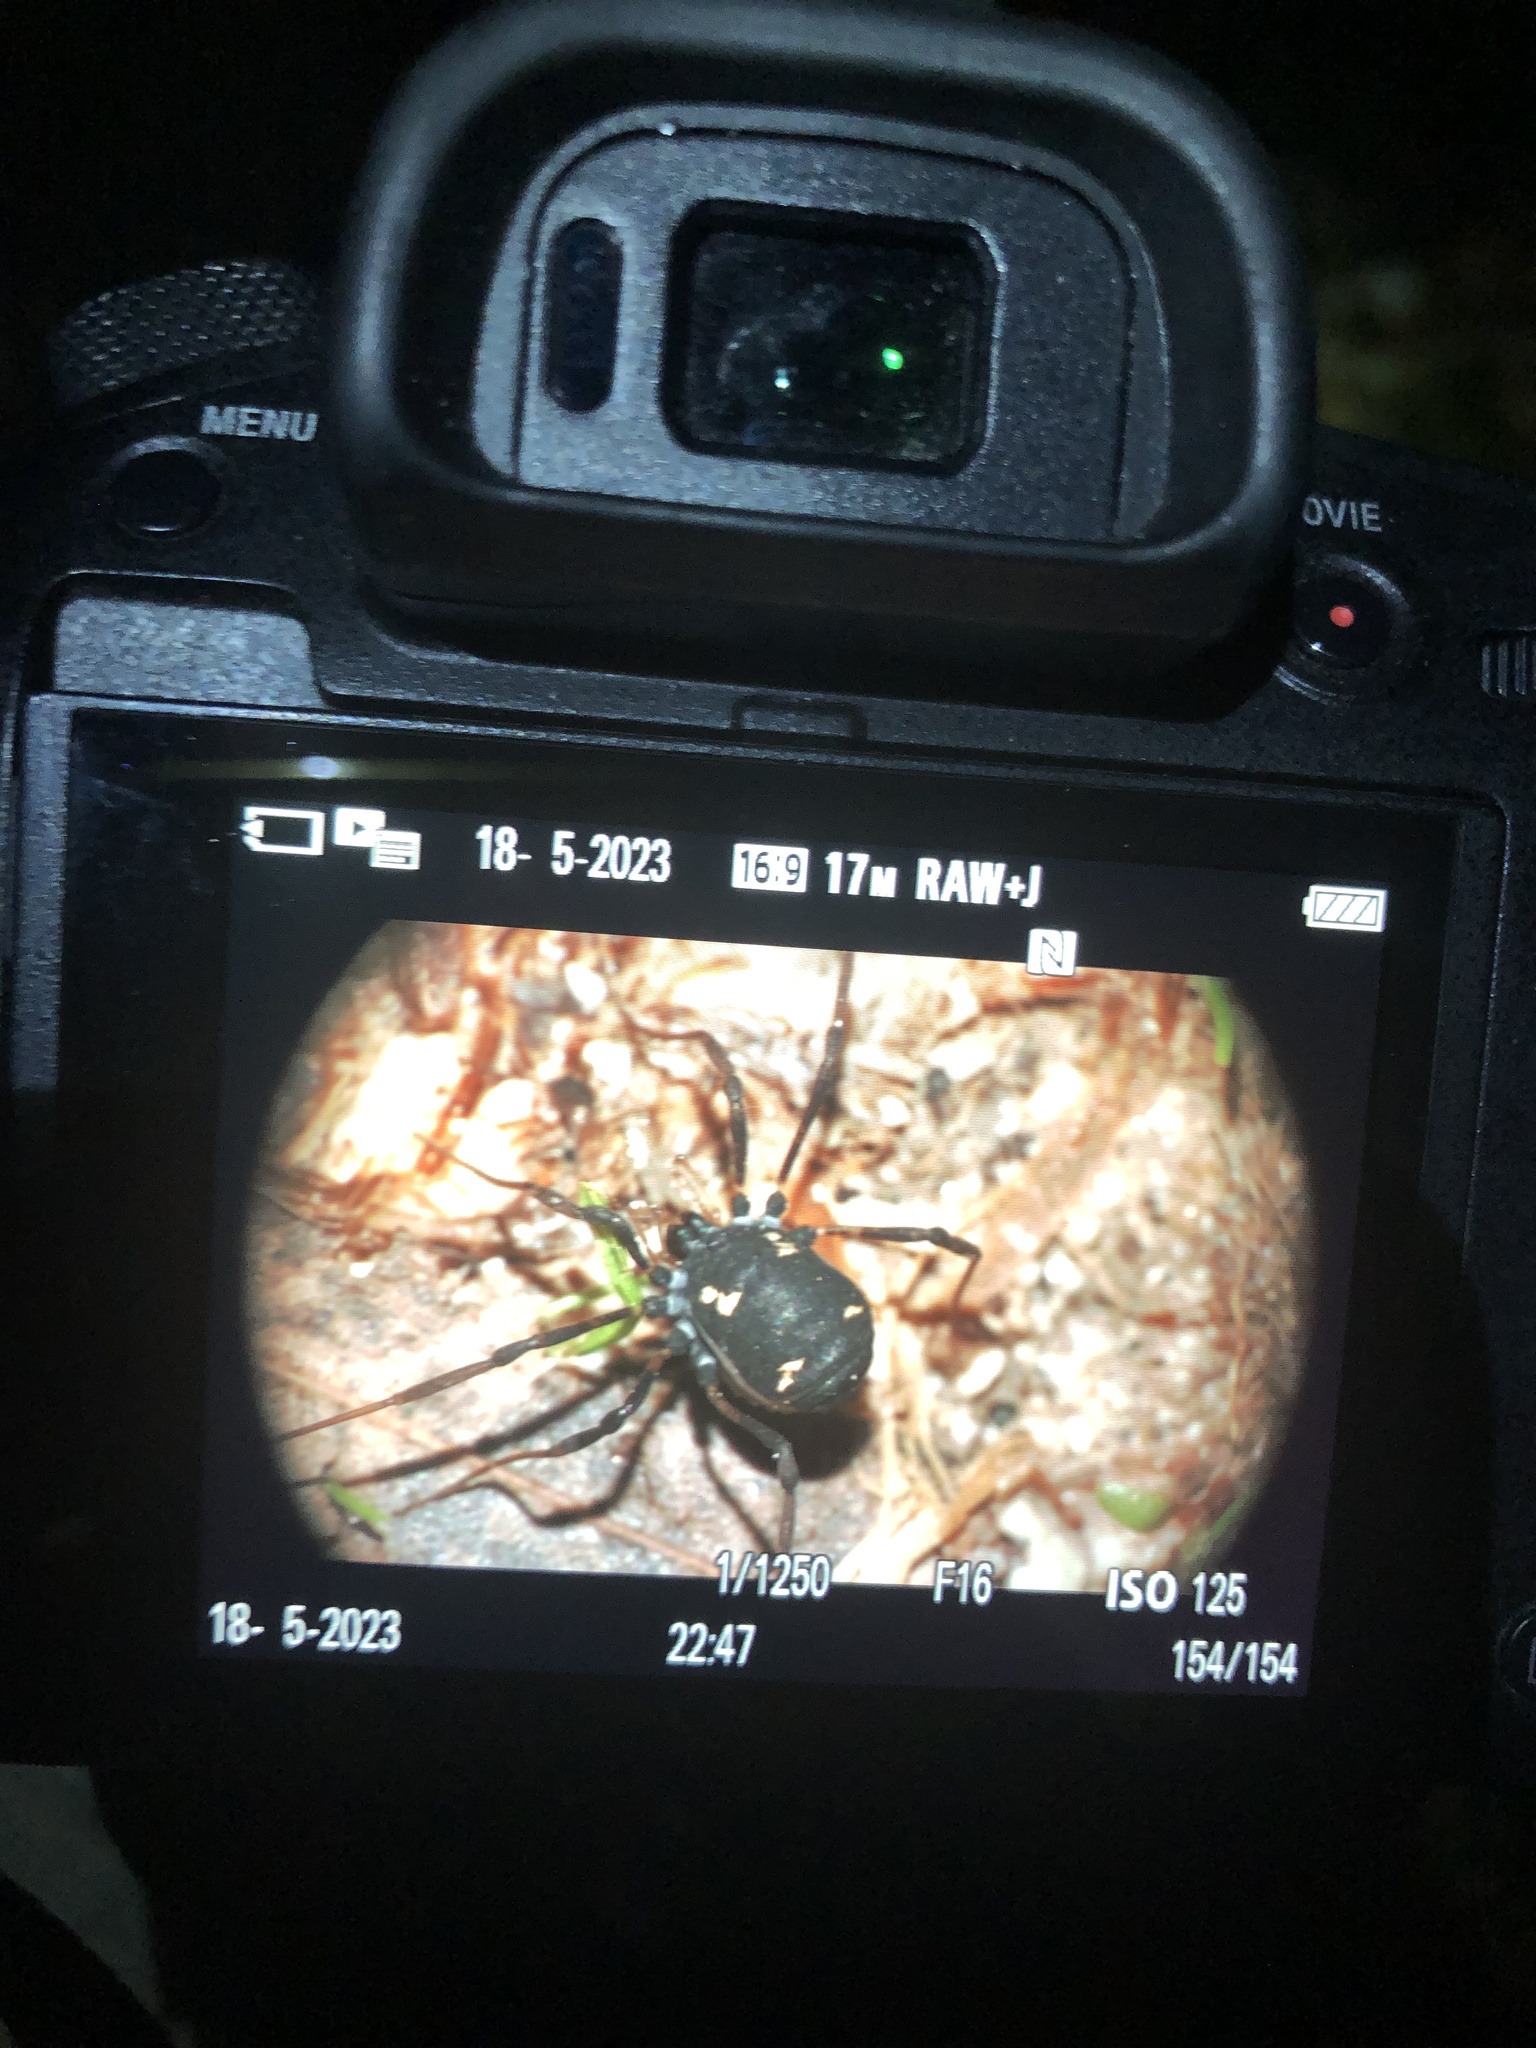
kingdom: Animalia
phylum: Arthropoda
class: Arachnida
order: Opiliones
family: Nemastomatidae
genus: Paranemastoma
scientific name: Paranemastoma quadripunctatum
